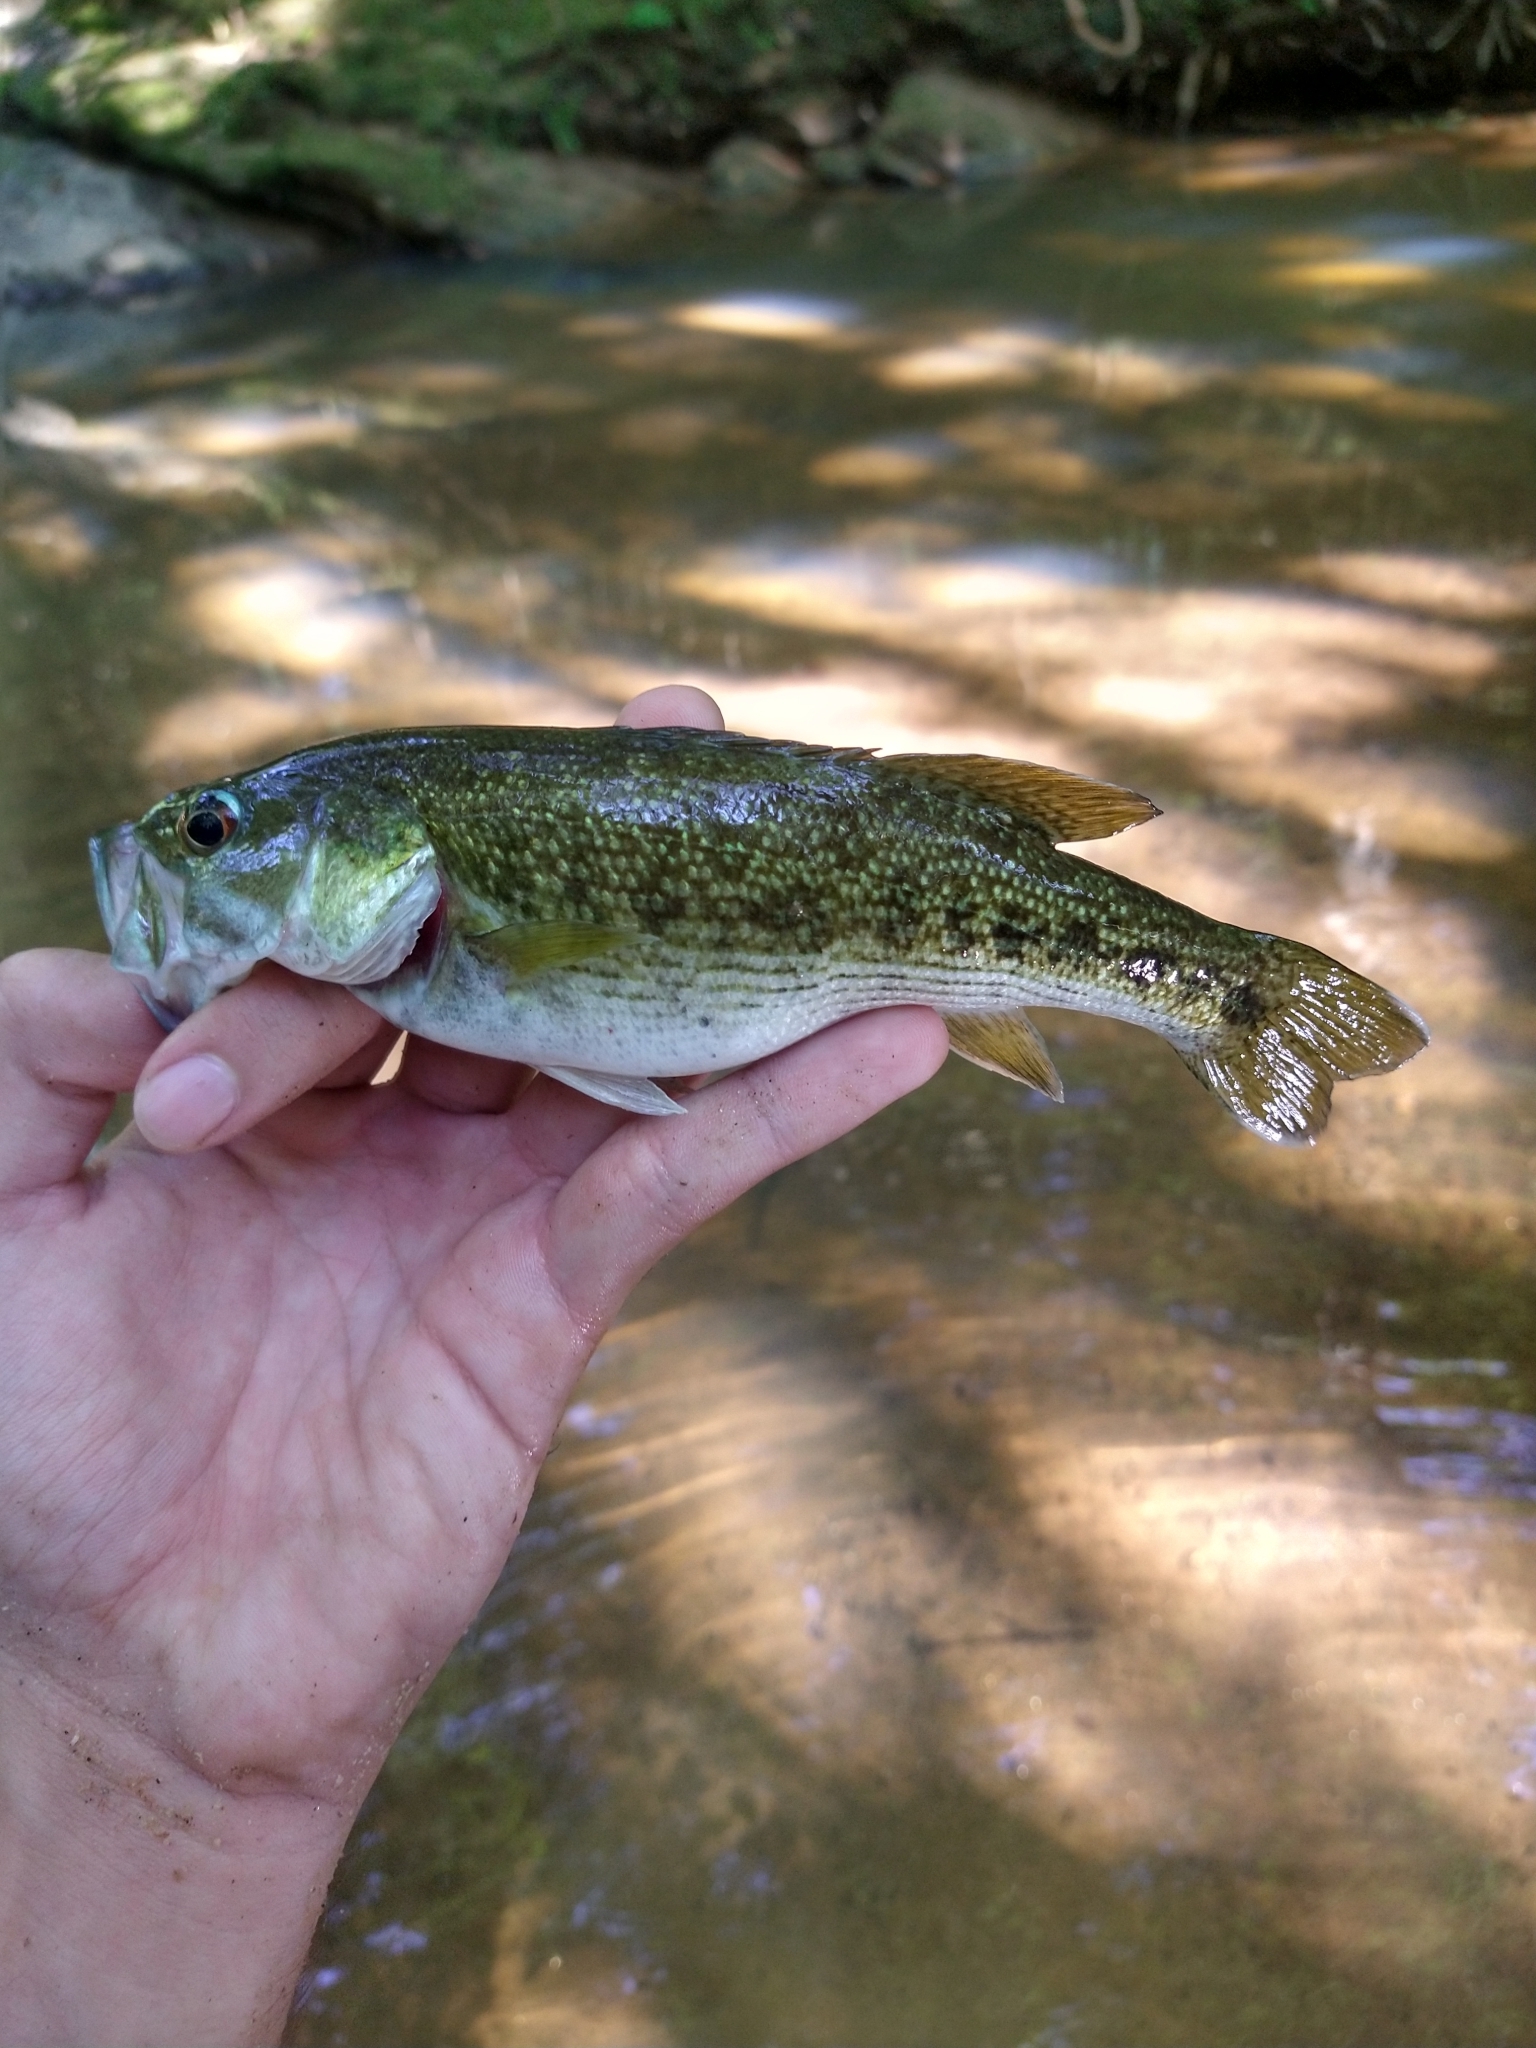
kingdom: Animalia
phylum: Chordata
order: Perciformes
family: Centrarchidae
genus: Micropterus
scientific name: Micropterus tallapoosae
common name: Tallapoosa bass
